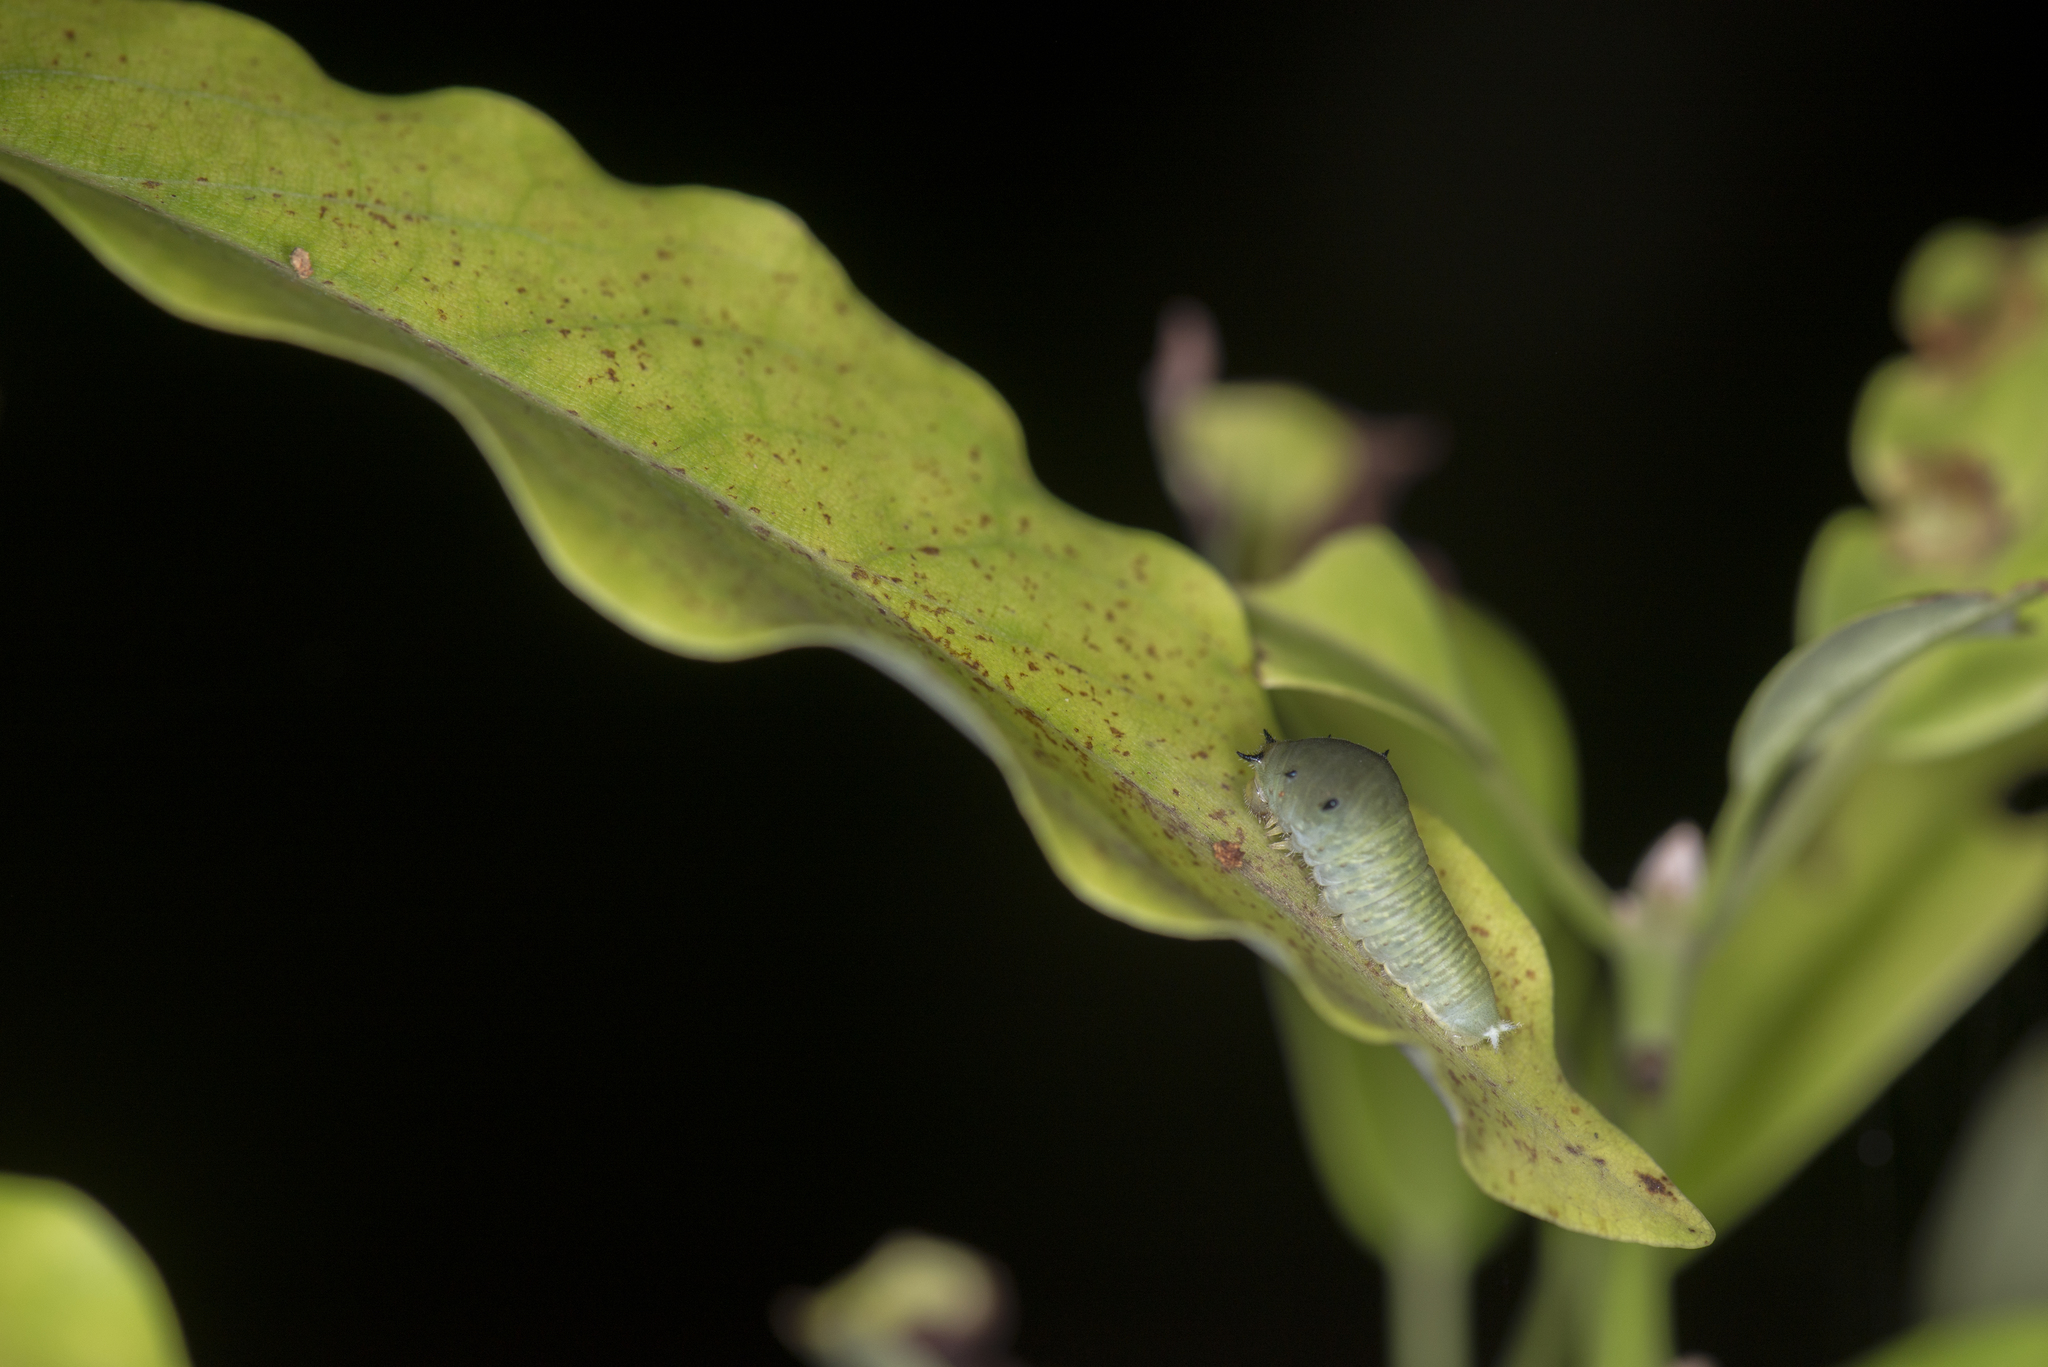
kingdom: Fungi
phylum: Ascomycota
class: Sordariomycetes
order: Microascales
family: Microascaceae
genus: Graphium
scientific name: Graphium sarpedon
